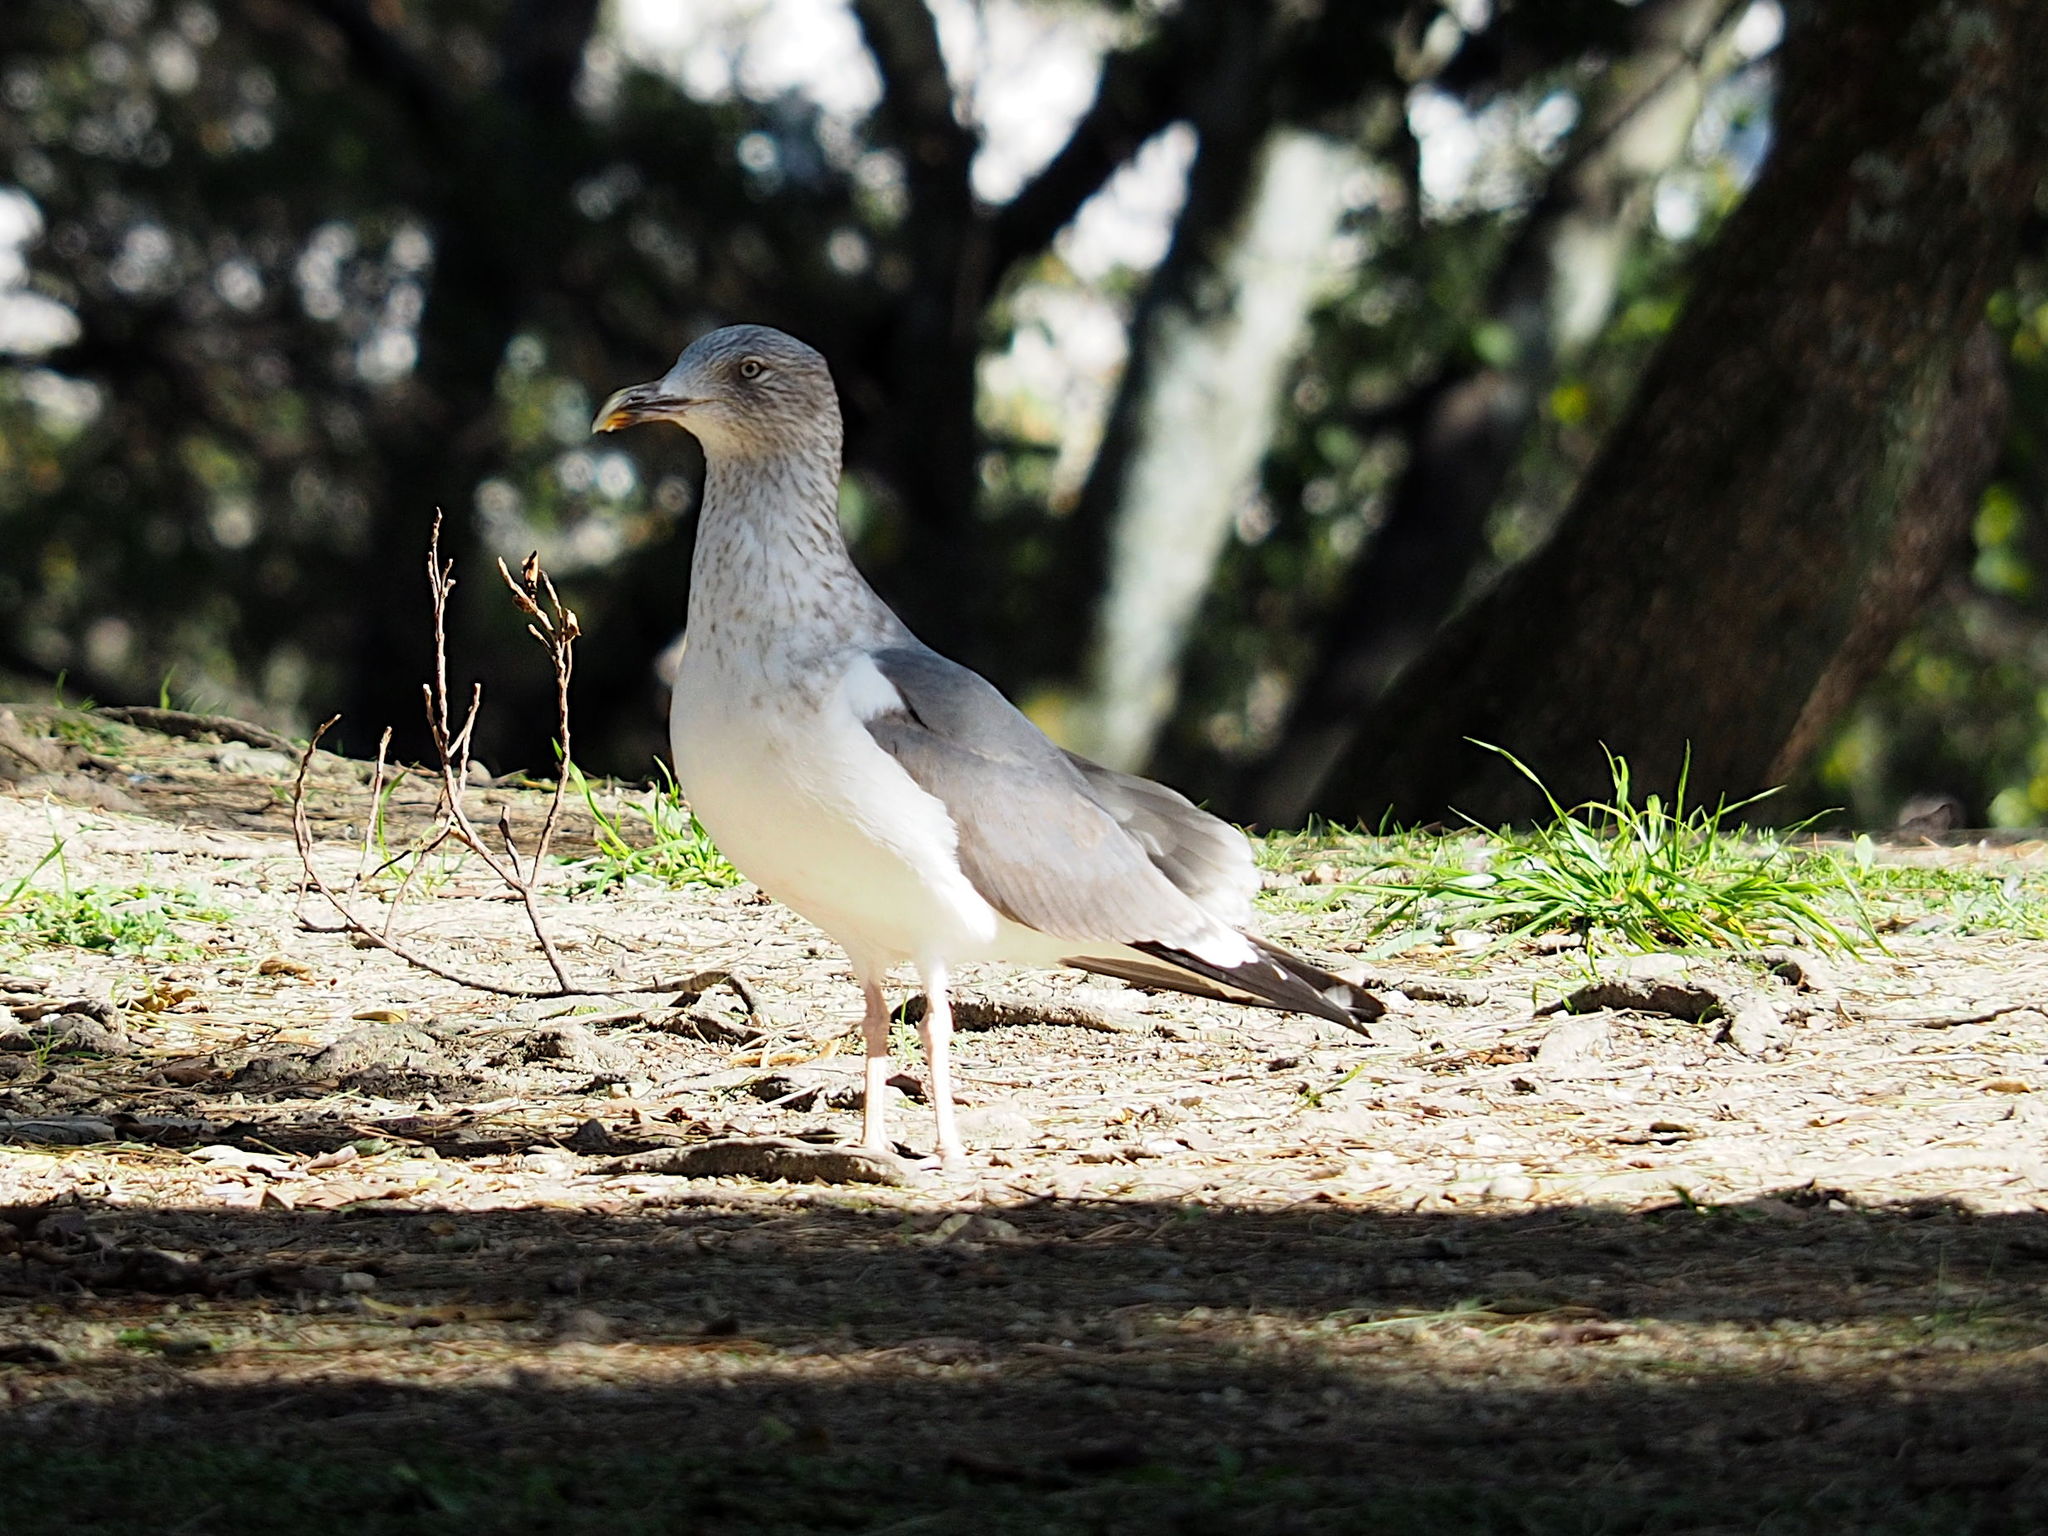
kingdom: Animalia
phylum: Chordata
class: Aves
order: Charadriiformes
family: Laridae
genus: Larus
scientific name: Larus fuscus
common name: Lesser black-backed gull
